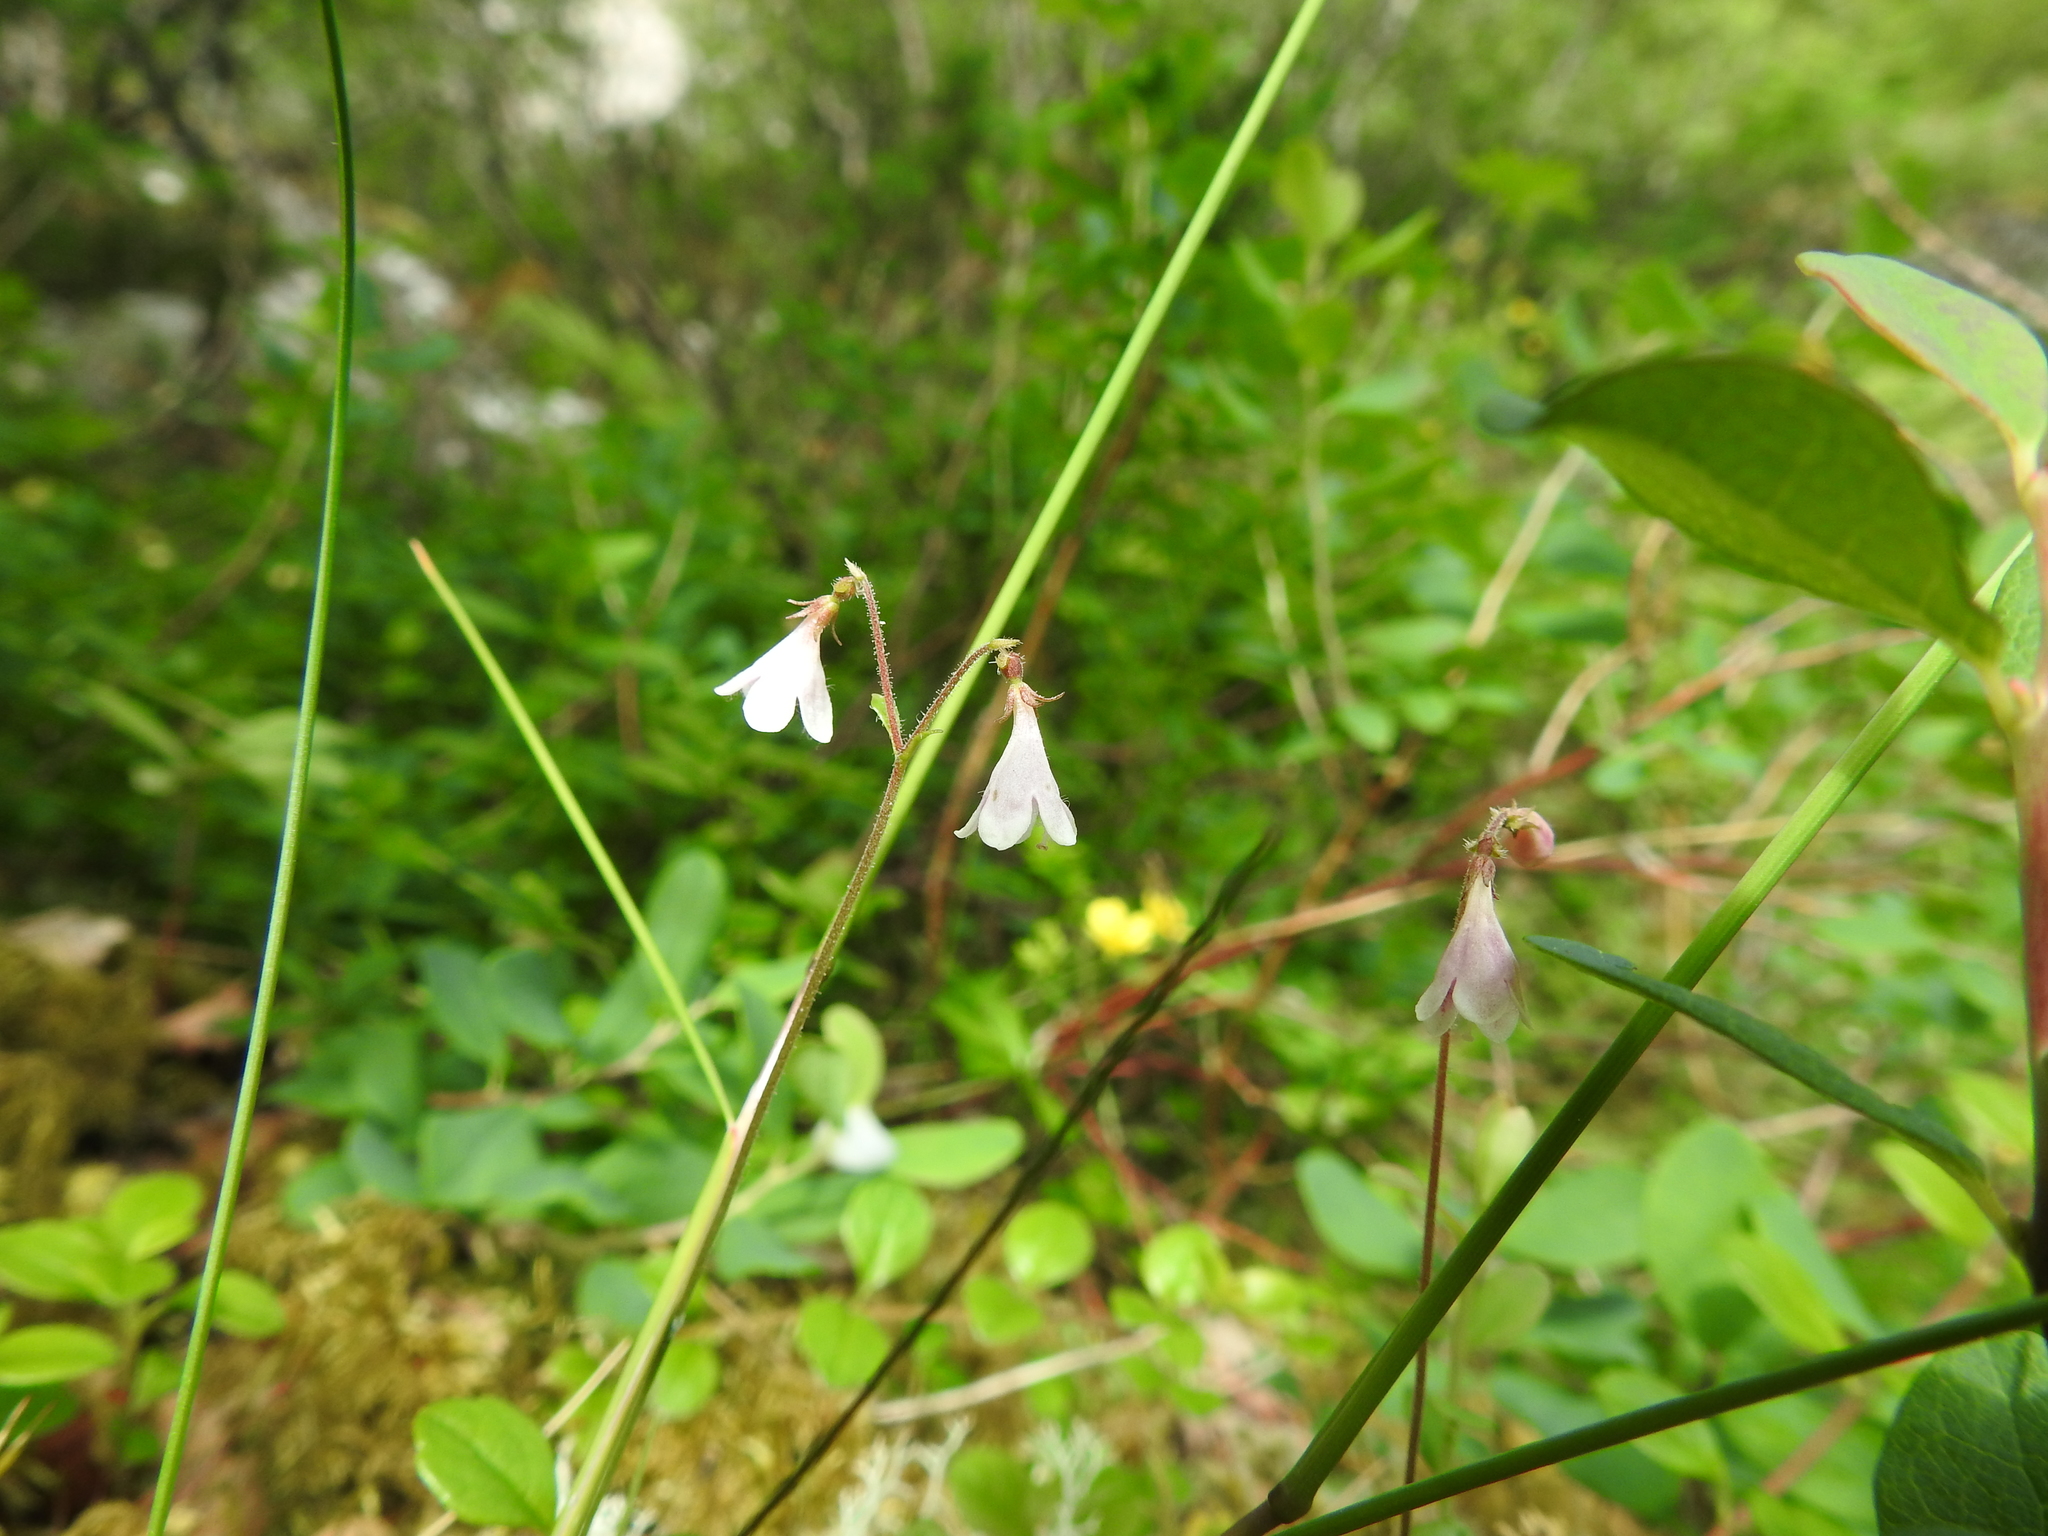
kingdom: Plantae
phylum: Tracheophyta
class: Magnoliopsida
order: Dipsacales
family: Caprifoliaceae
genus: Linnaea
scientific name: Linnaea borealis
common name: Twinflower
